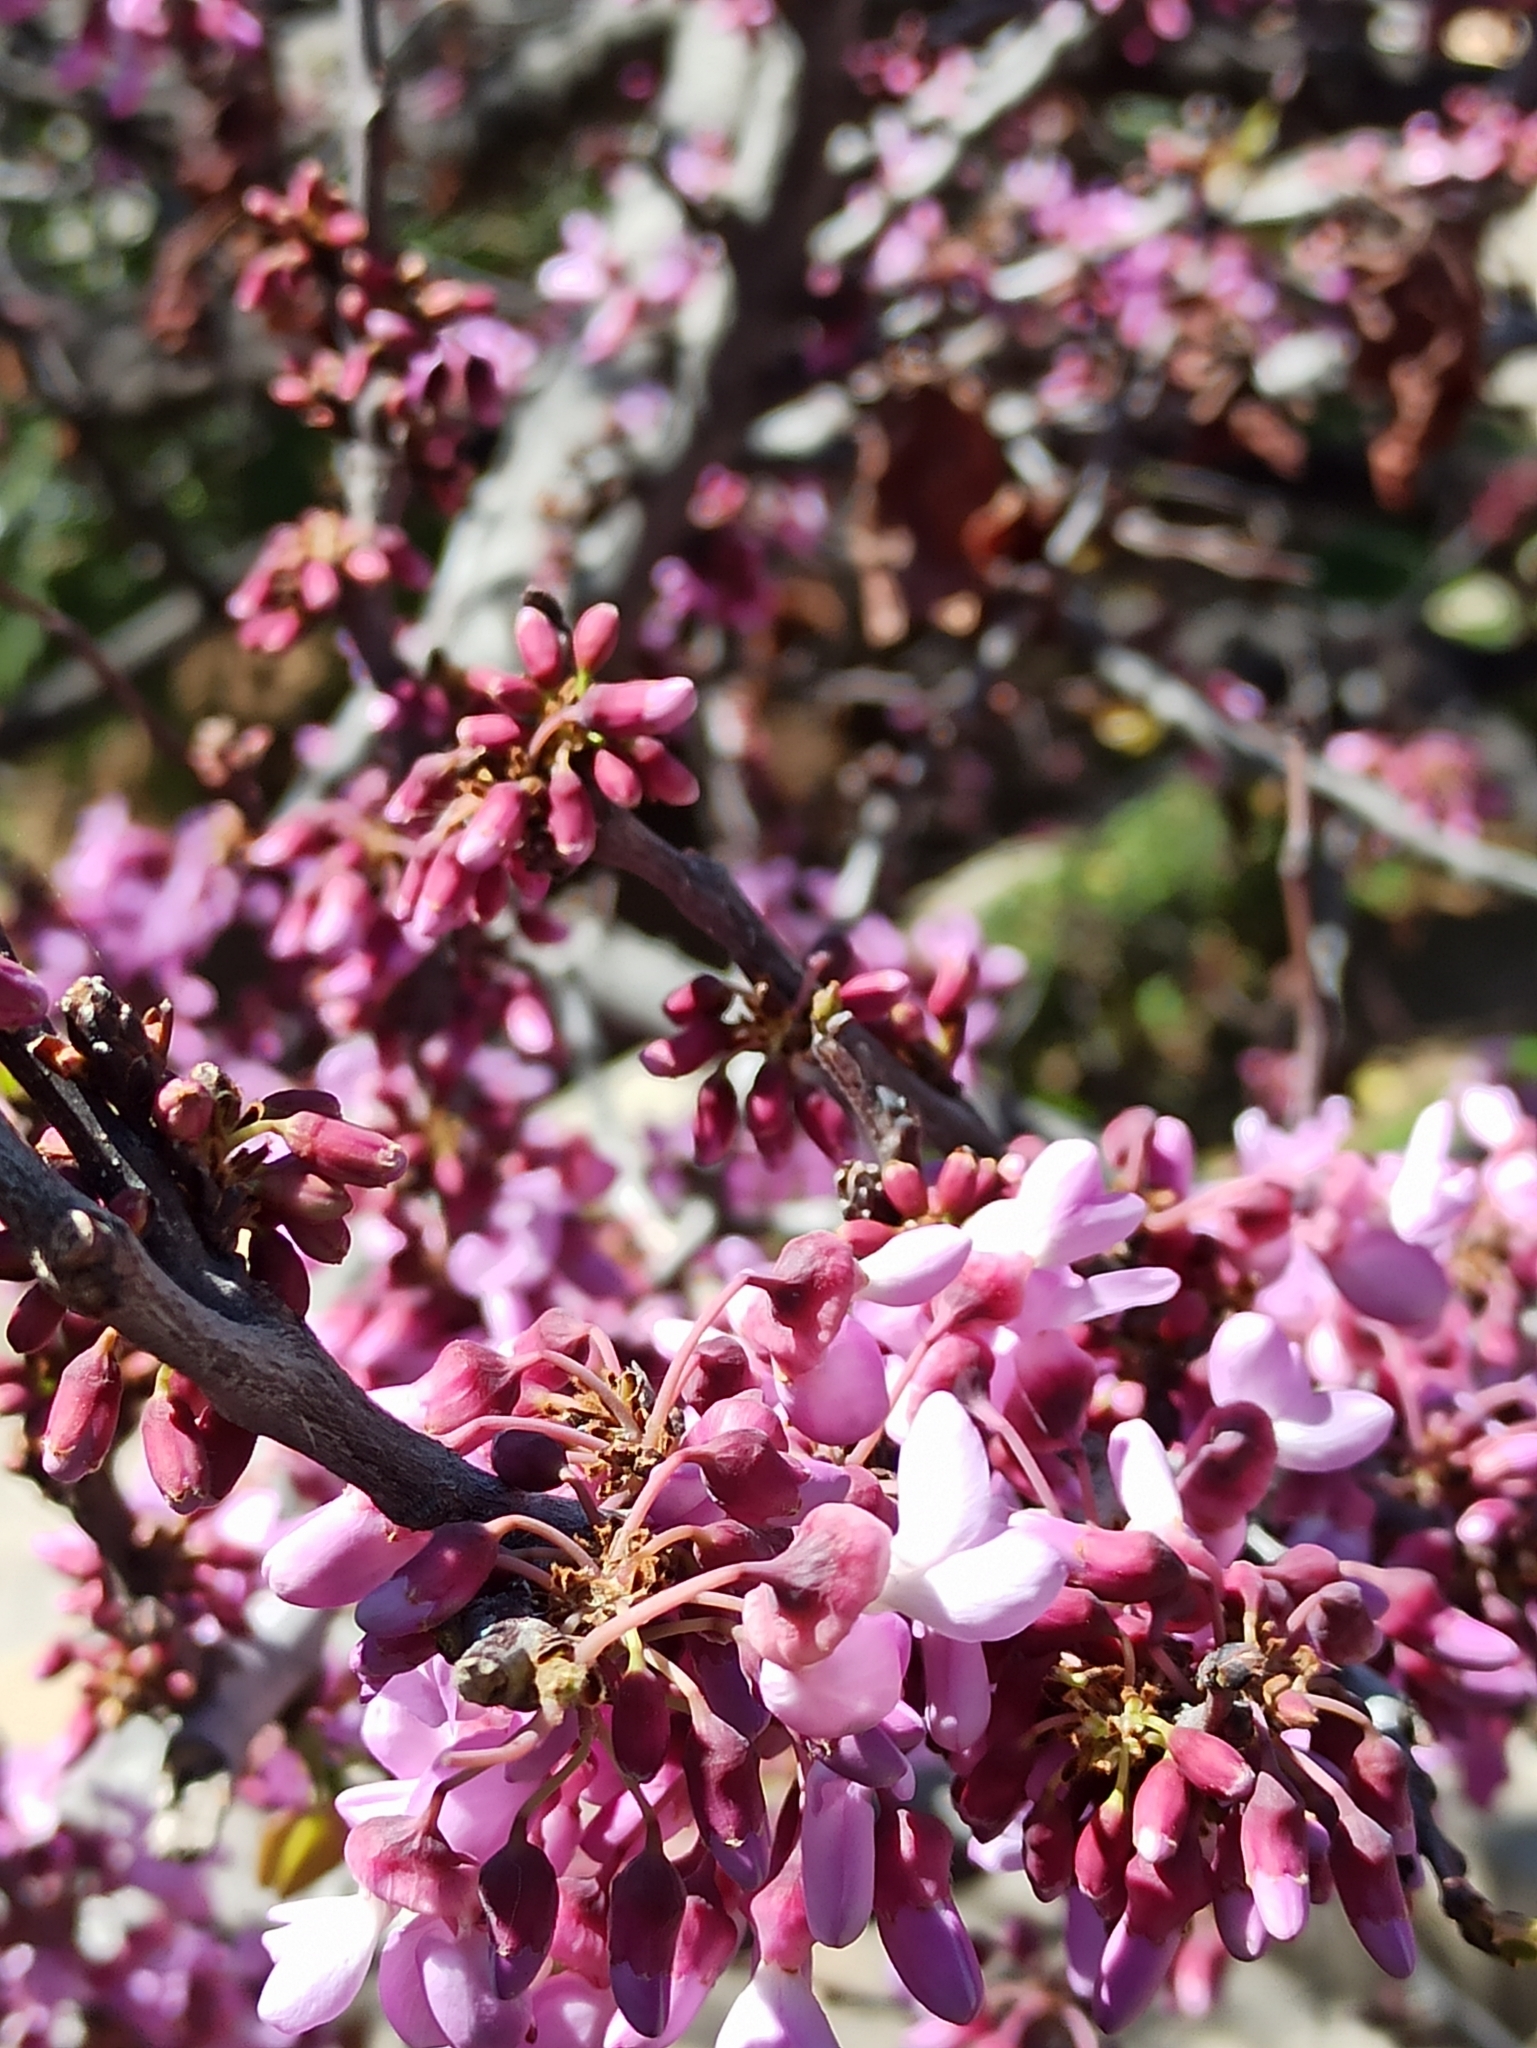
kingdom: Plantae
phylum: Tracheophyta
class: Magnoliopsida
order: Fabales
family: Fabaceae
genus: Cercis
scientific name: Cercis siliquastrum
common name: Judas tree
